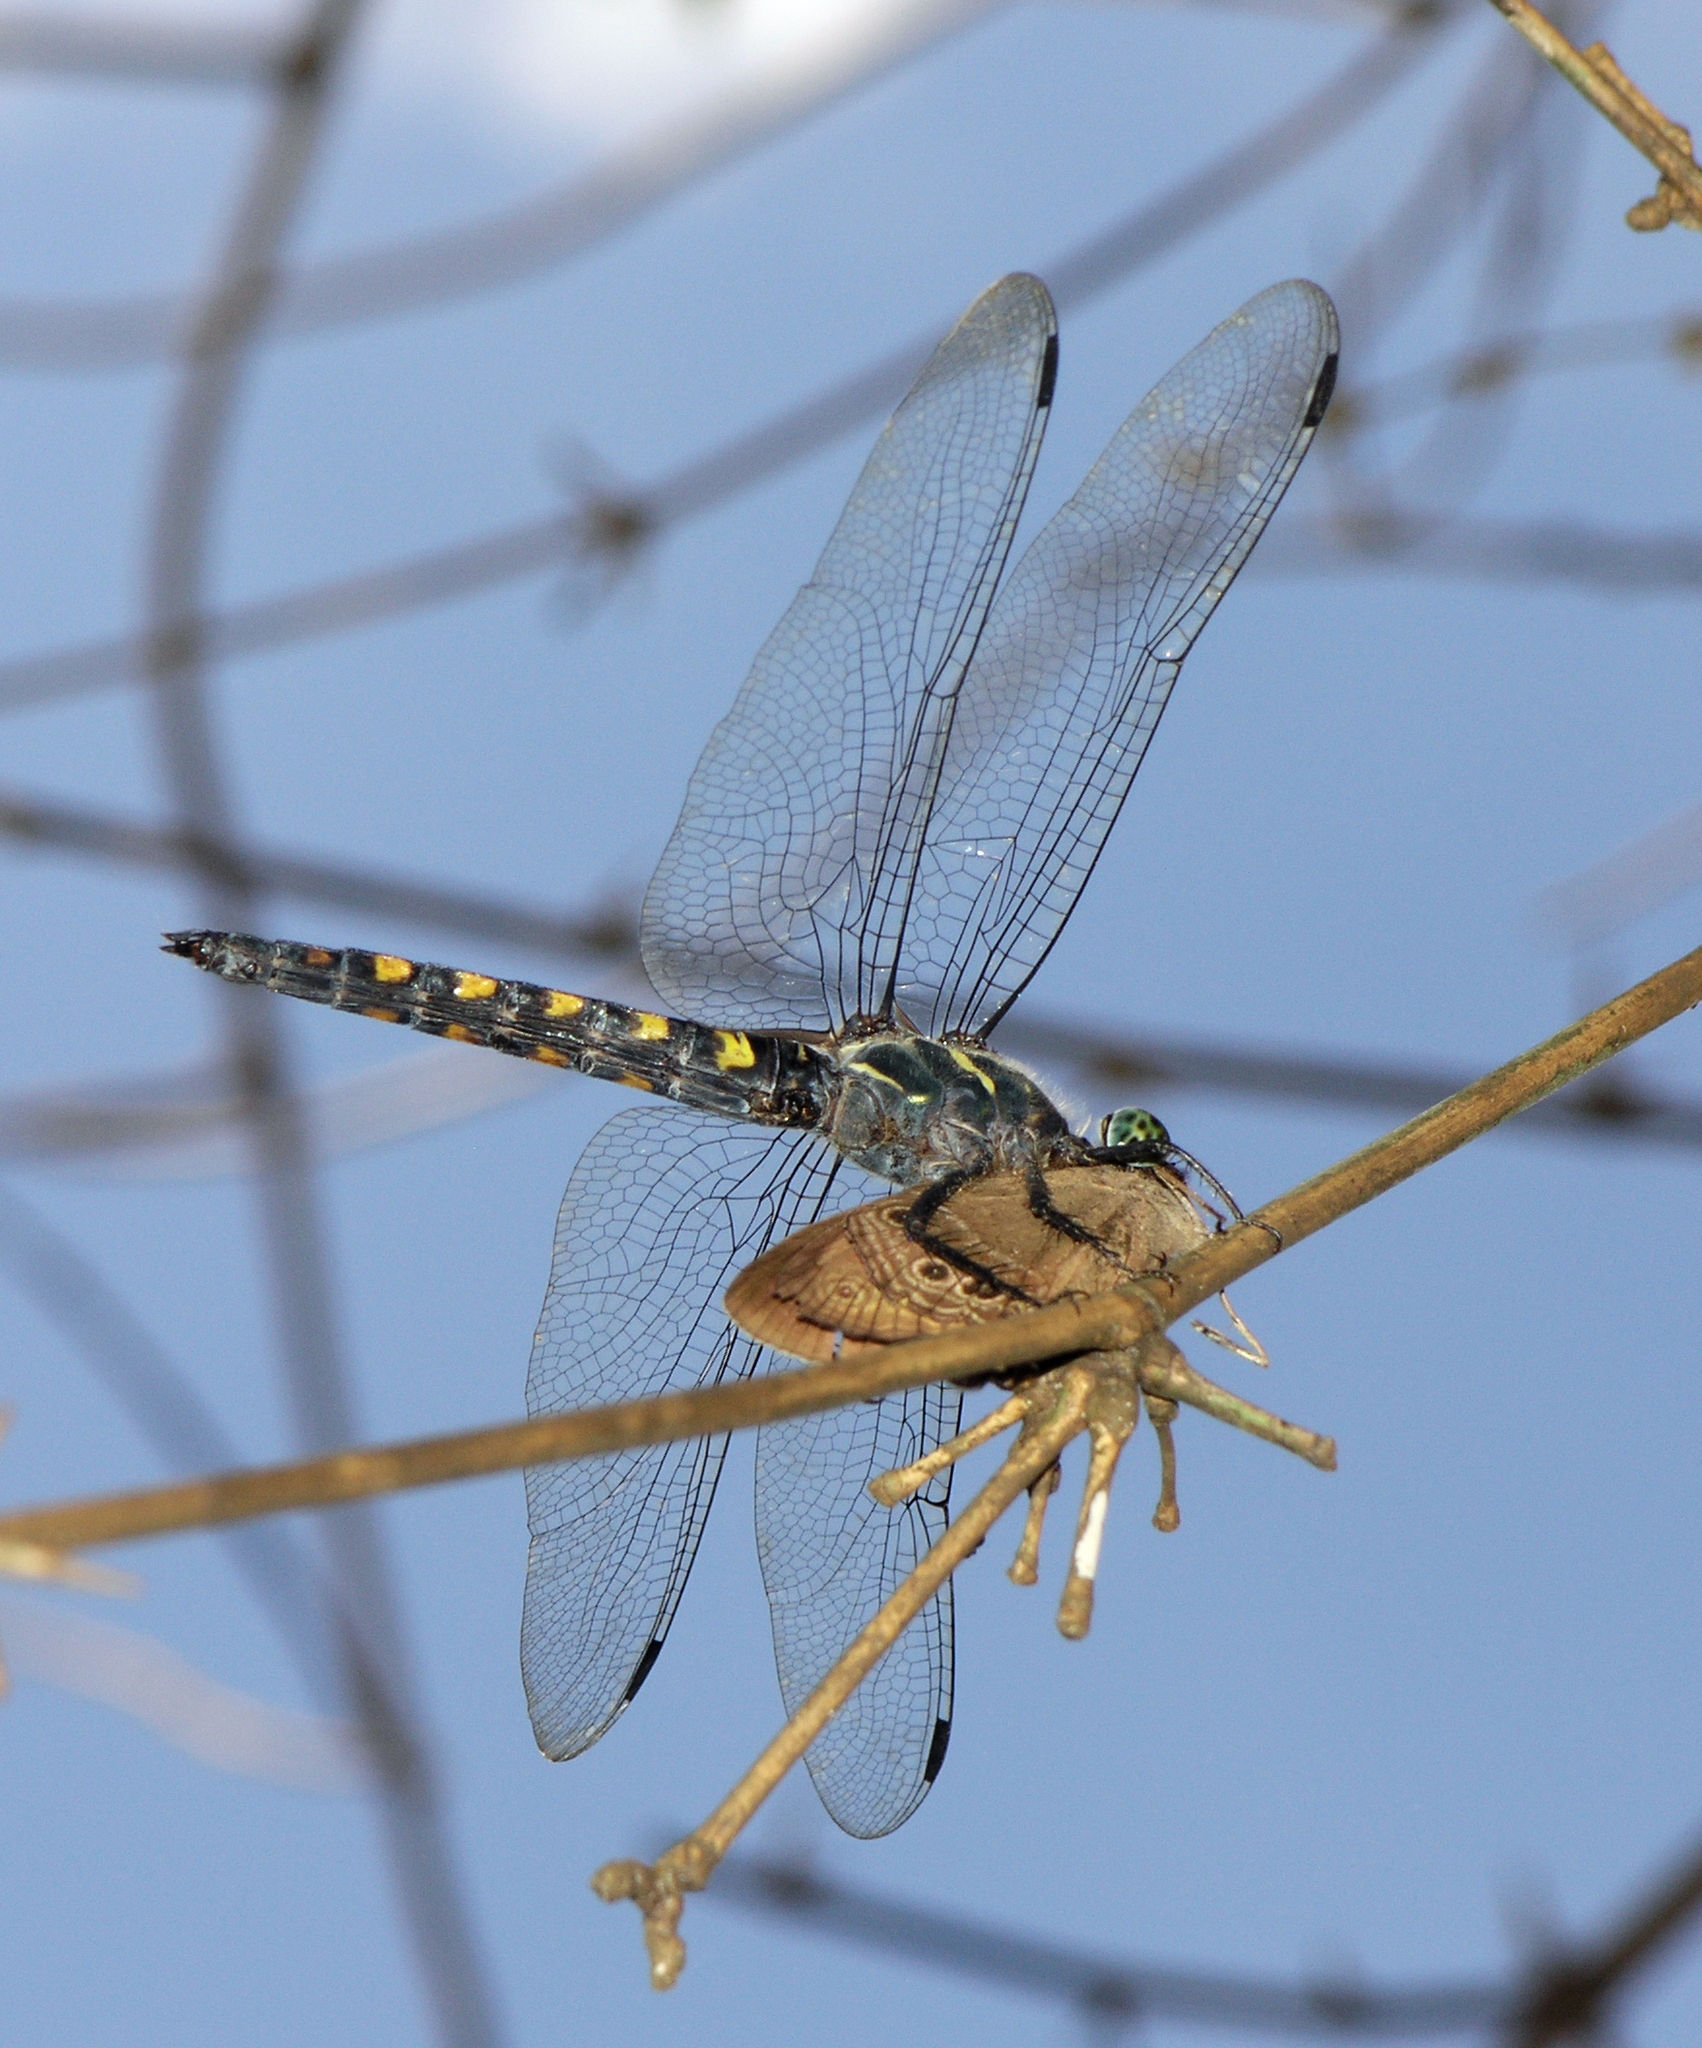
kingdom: Animalia
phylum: Arthropoda
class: Insecta
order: Odonata
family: Libellulidae
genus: Onychothemis
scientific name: Onychothemis testacea
